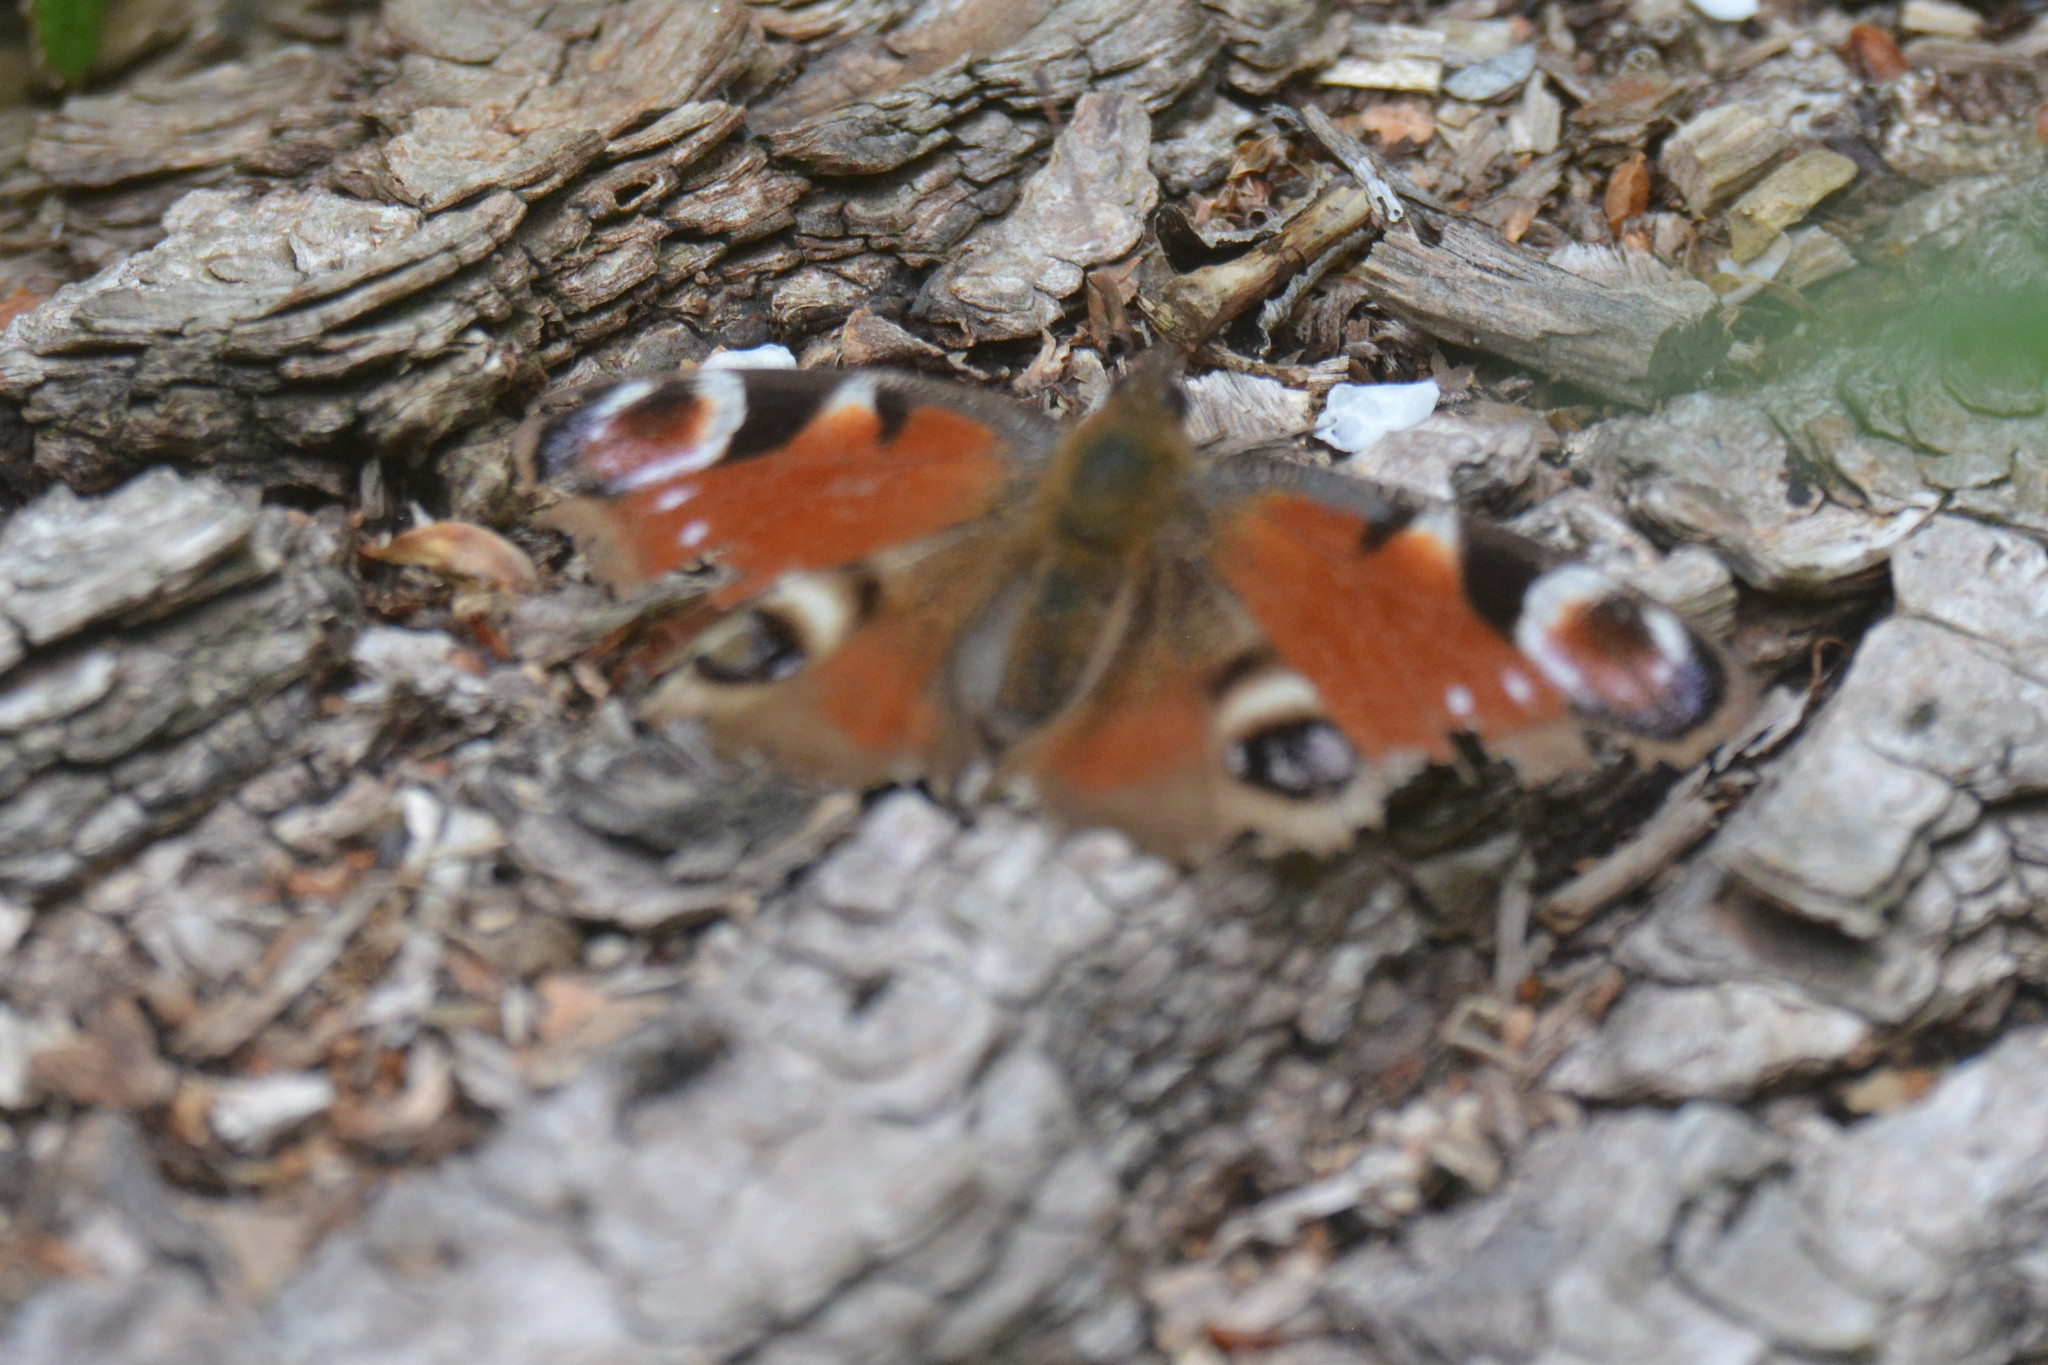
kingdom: Animalia
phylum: Arthropoda
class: Insecta
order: Lepidoptera
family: Nymphalidae
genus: Aglais
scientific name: Aglais io
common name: Peacock
